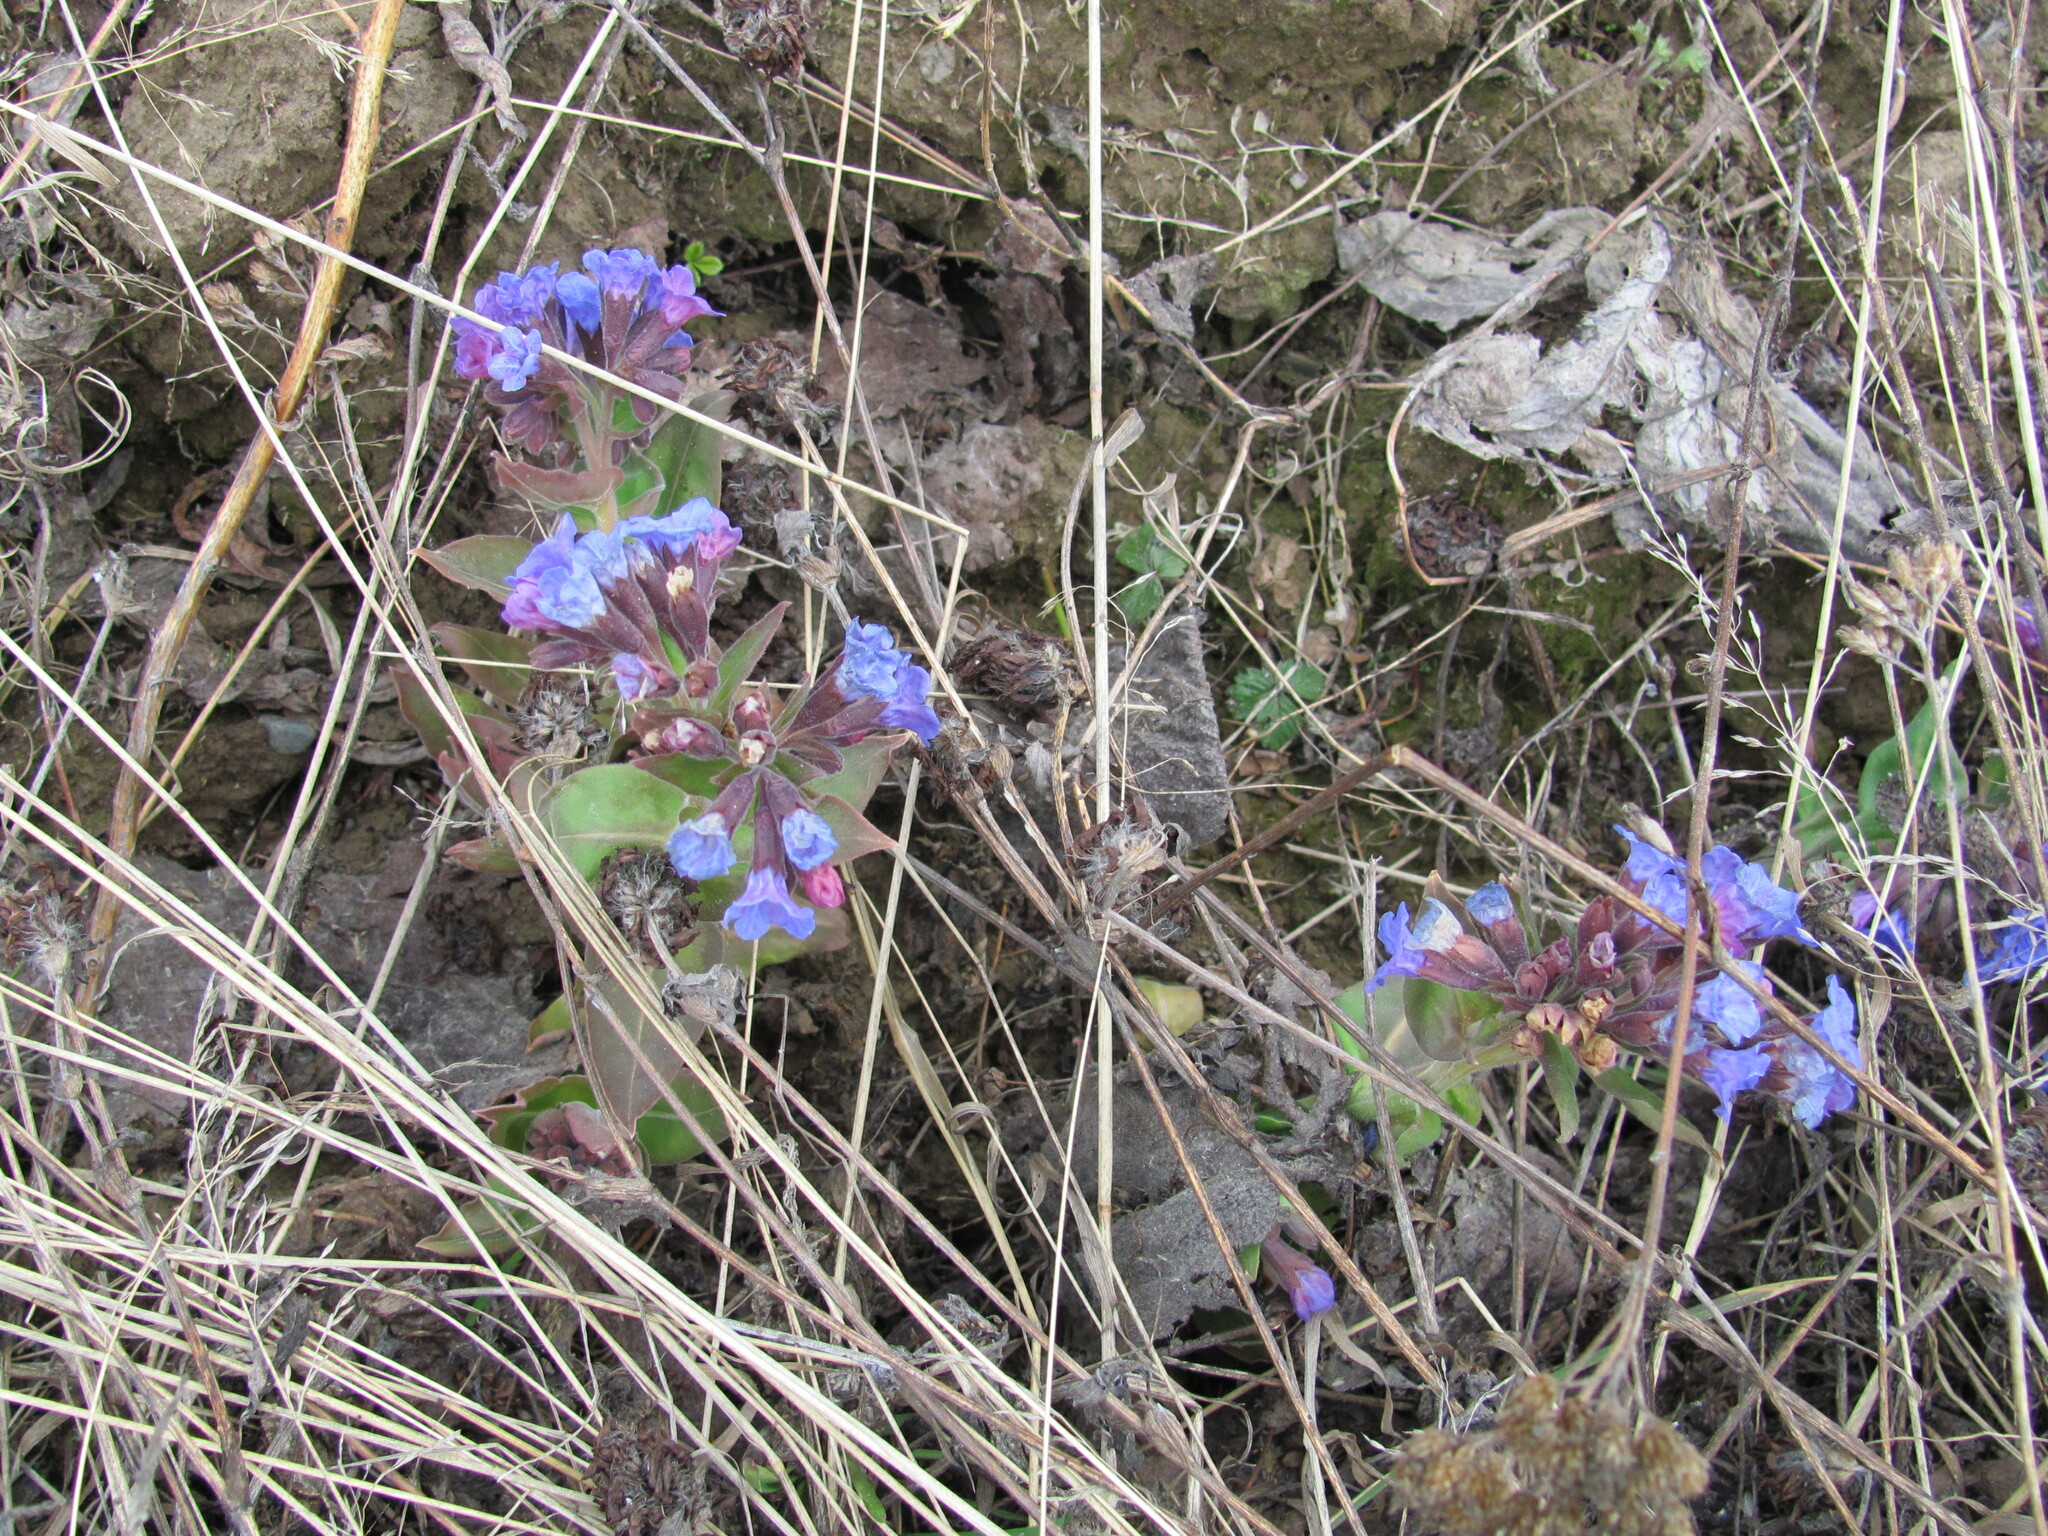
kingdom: Plantae
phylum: Tracheophyta
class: Magnoliopsida
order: Boraginales
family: Boraginaceae
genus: Pulmonaria
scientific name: Pulmonaria mollis
